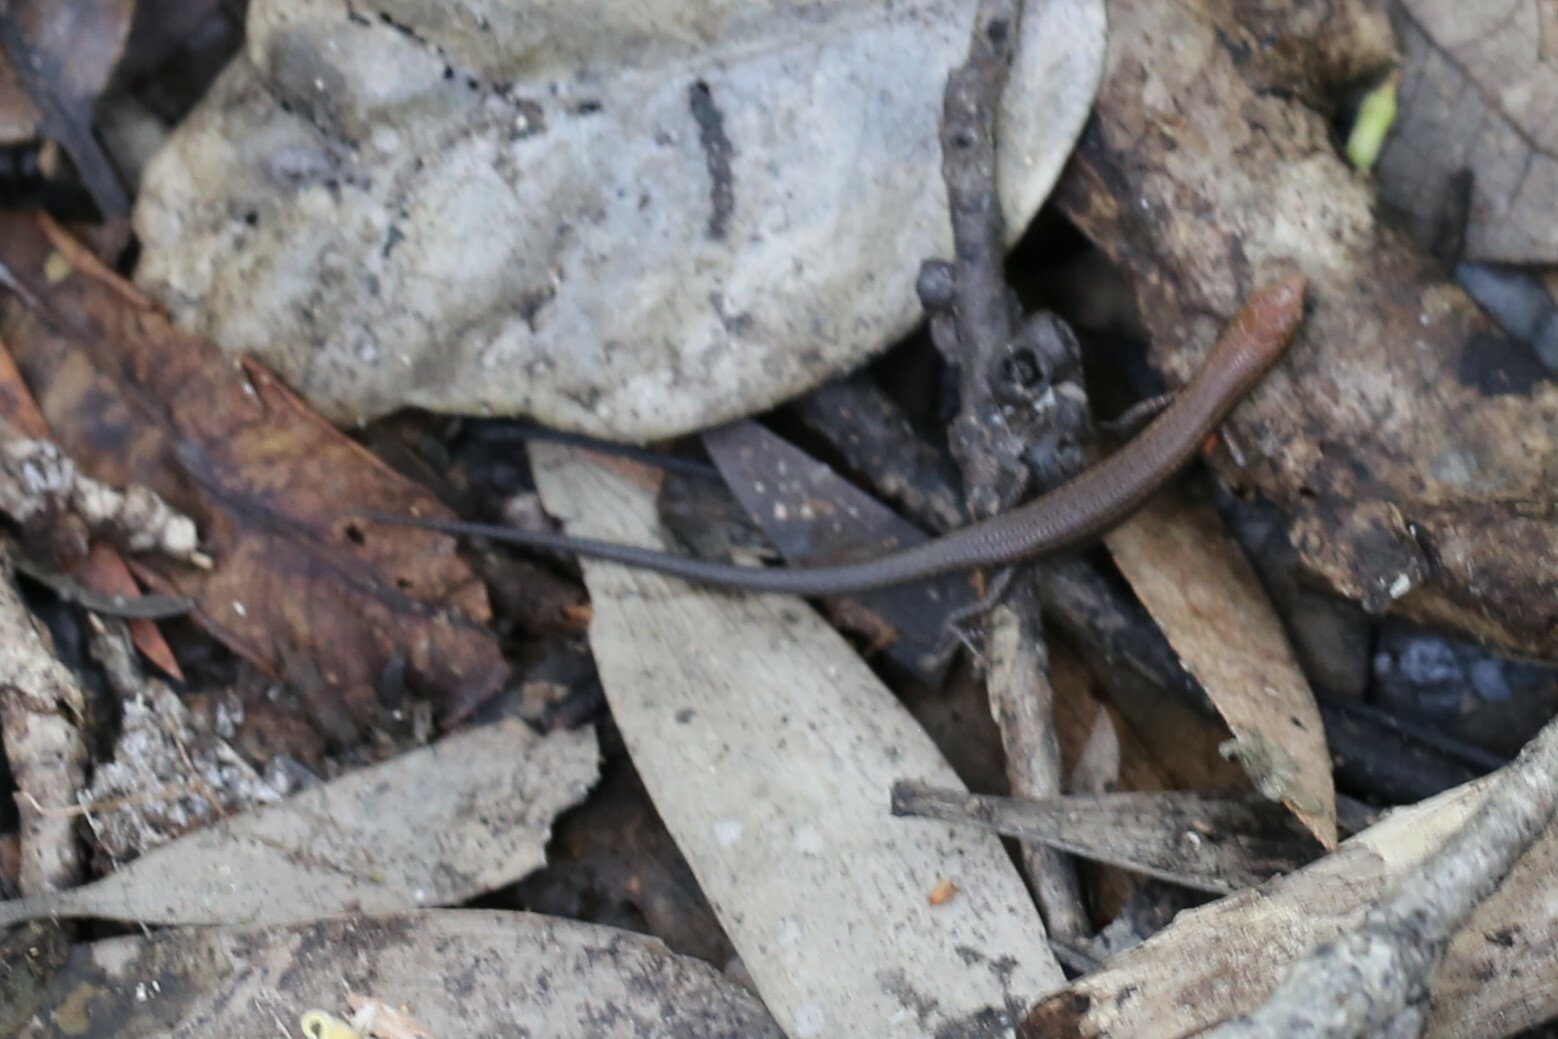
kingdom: Animalia
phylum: Chordata
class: Squamata
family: Scincidae
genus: Lampropholis
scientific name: Lampropholis delicata
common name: Plague skink
